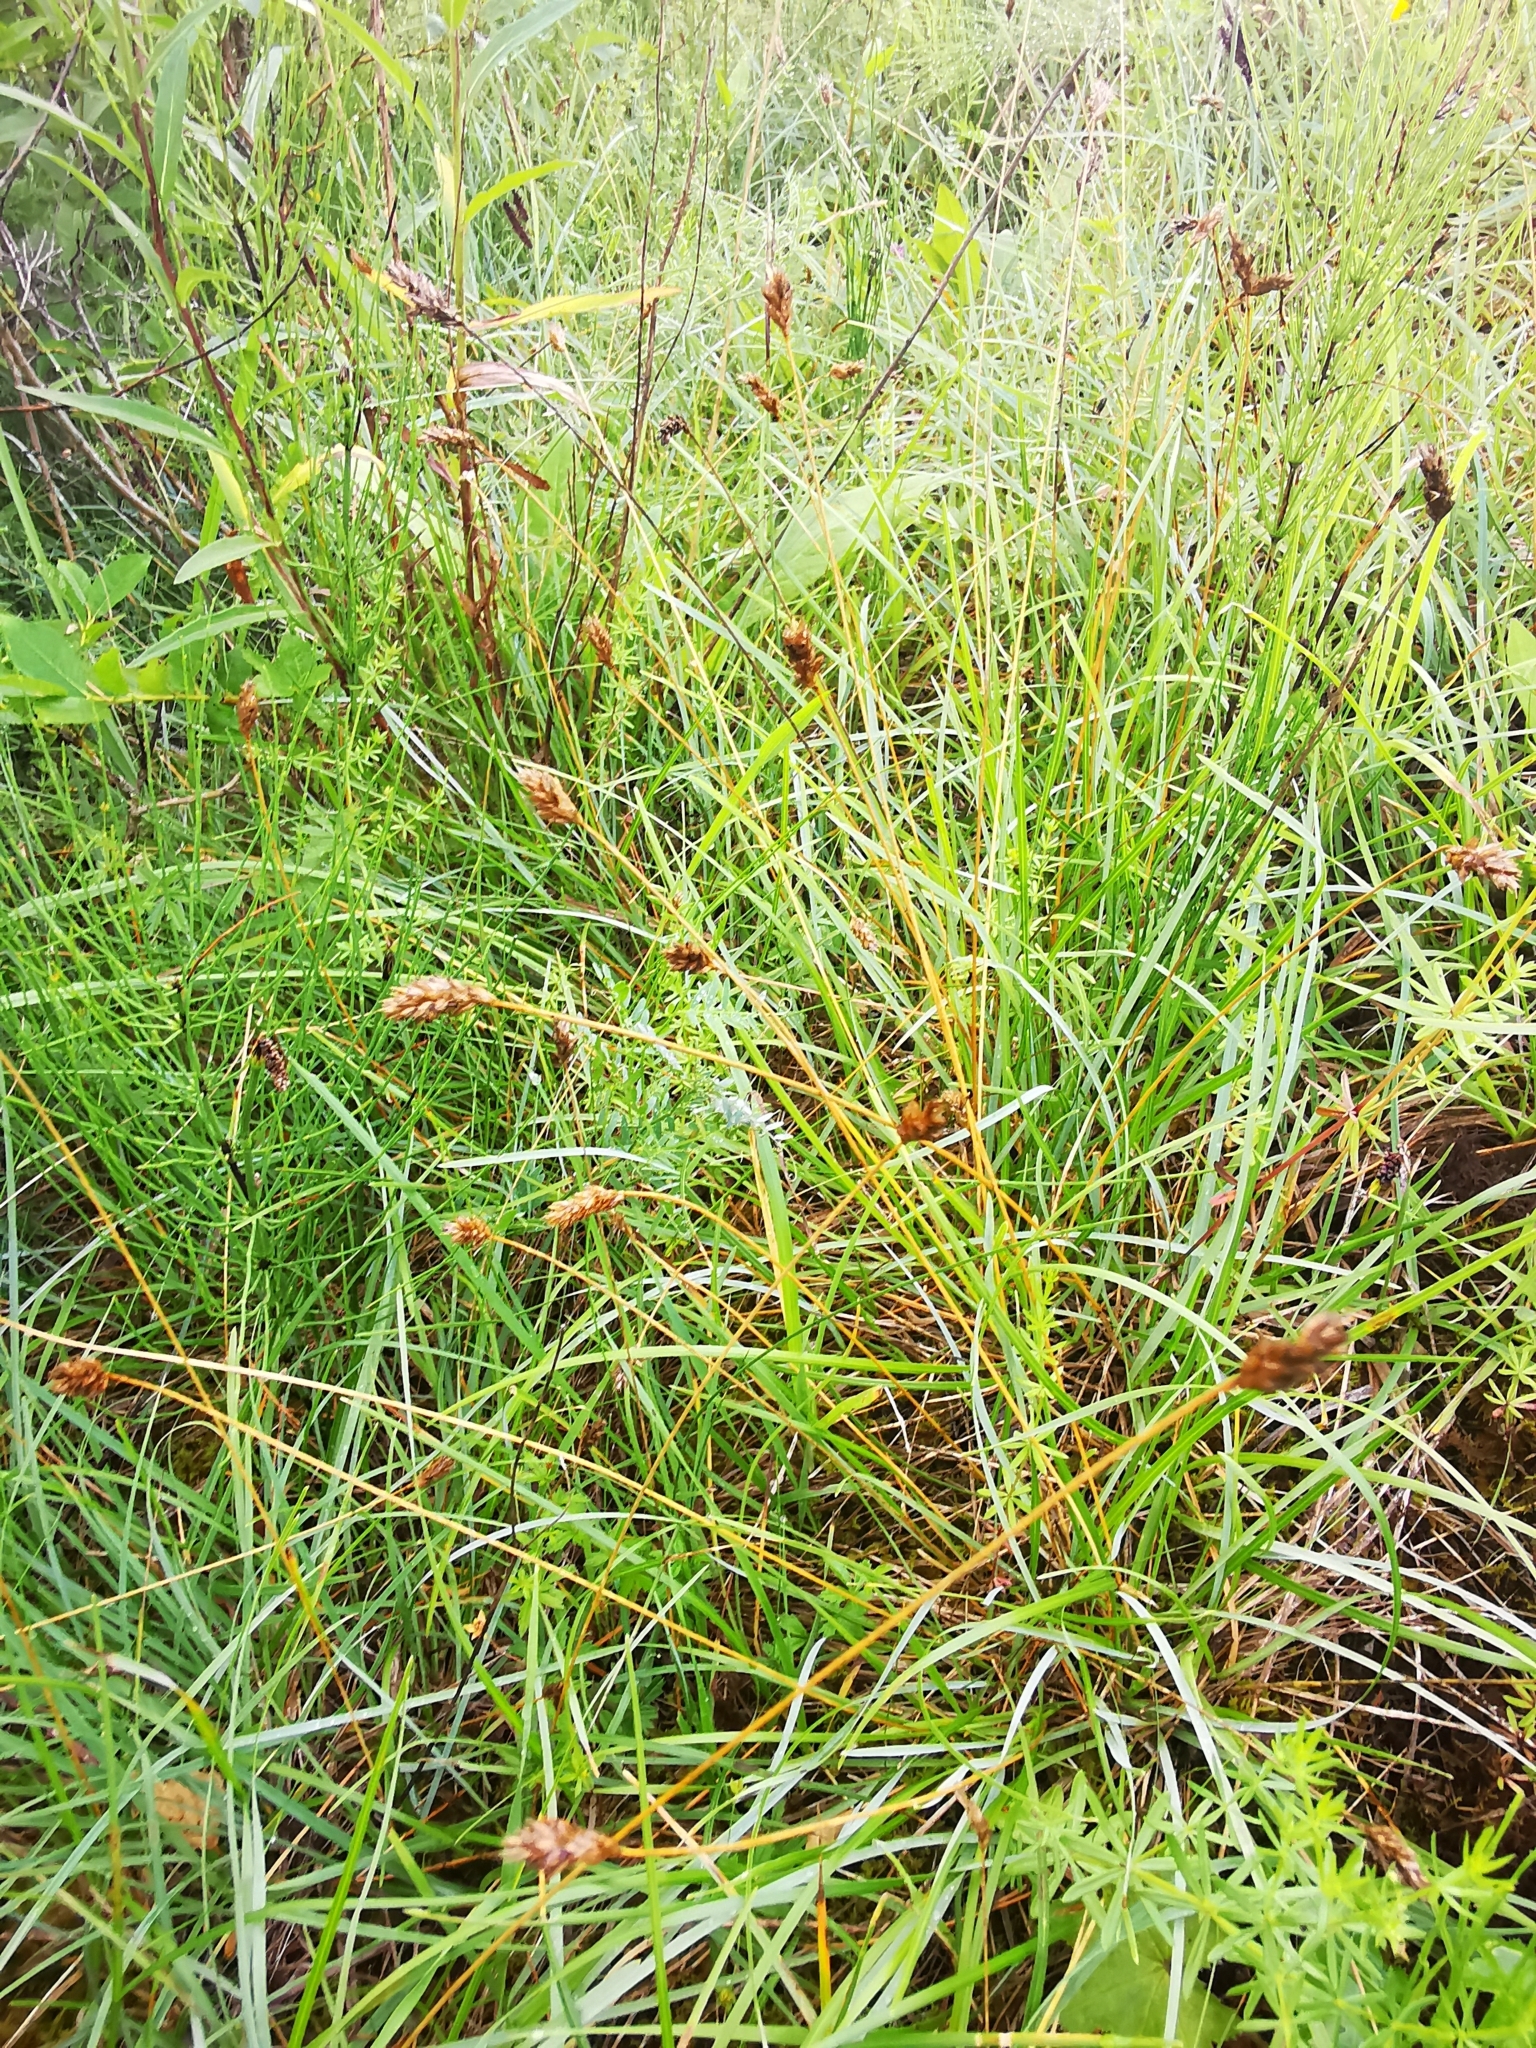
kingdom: Plantae
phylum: Tracheophyta
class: Liliopsida
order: Poales
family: Poaceae
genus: Sesleria
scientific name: Sesleria caerulea
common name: Blue moor-grass
